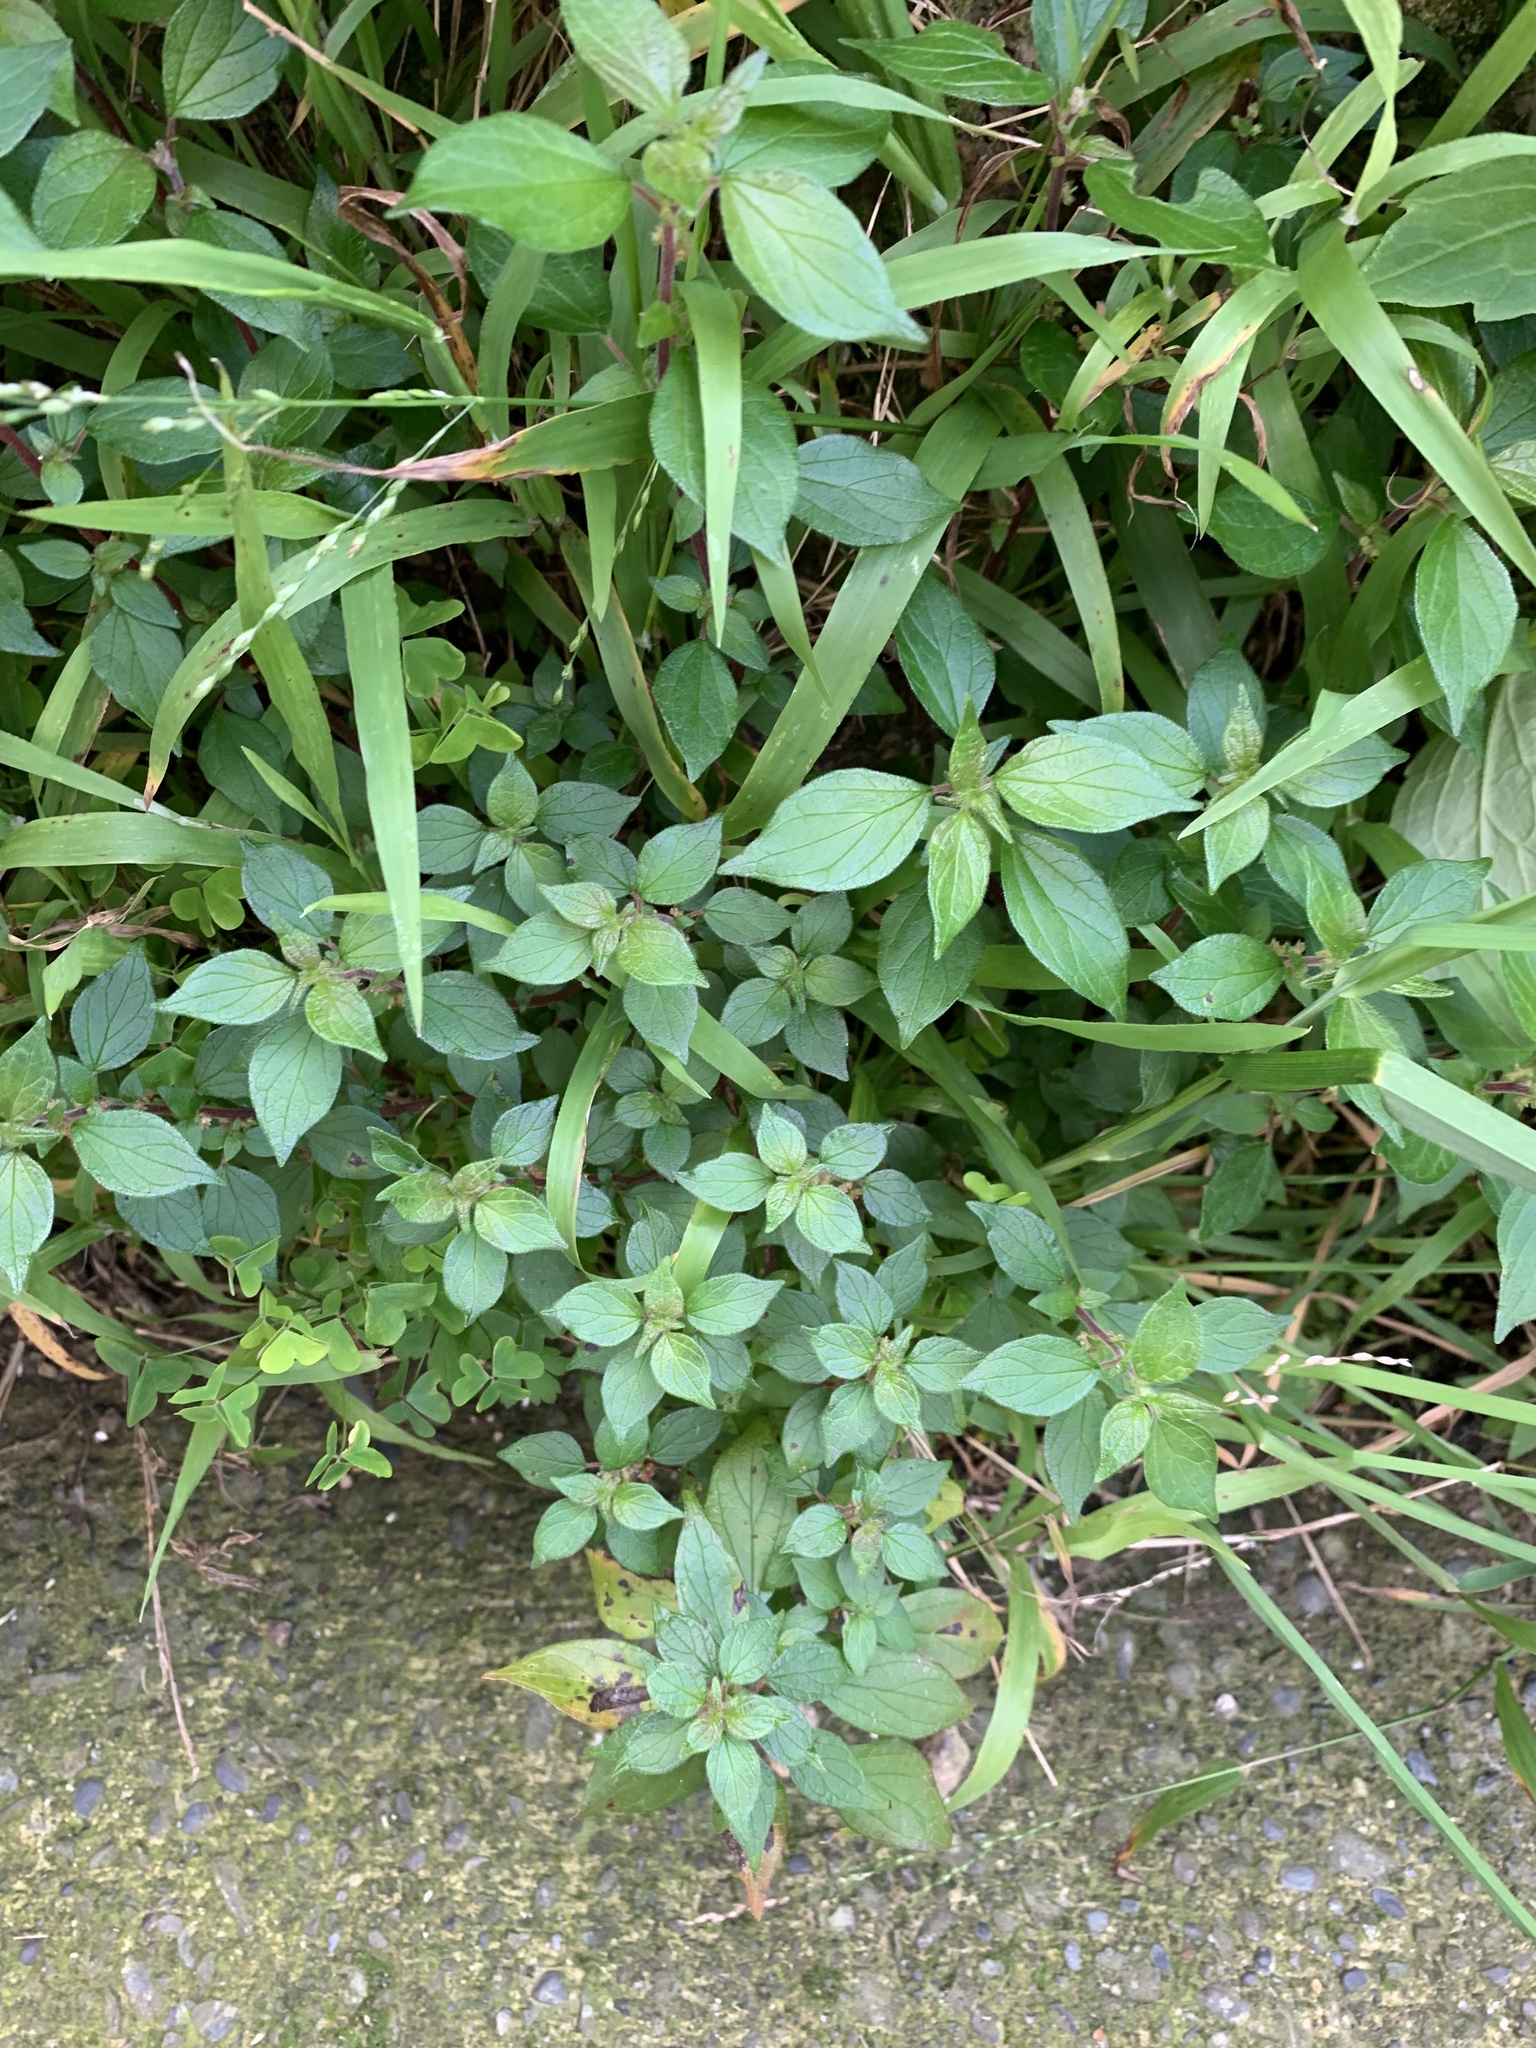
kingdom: Plantae
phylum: Tracheophyta
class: Magnoliopsida
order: Rosales
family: Urticaceae
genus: Parietaria
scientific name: Parietaria judaica
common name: Pellitory-of-the-wall
